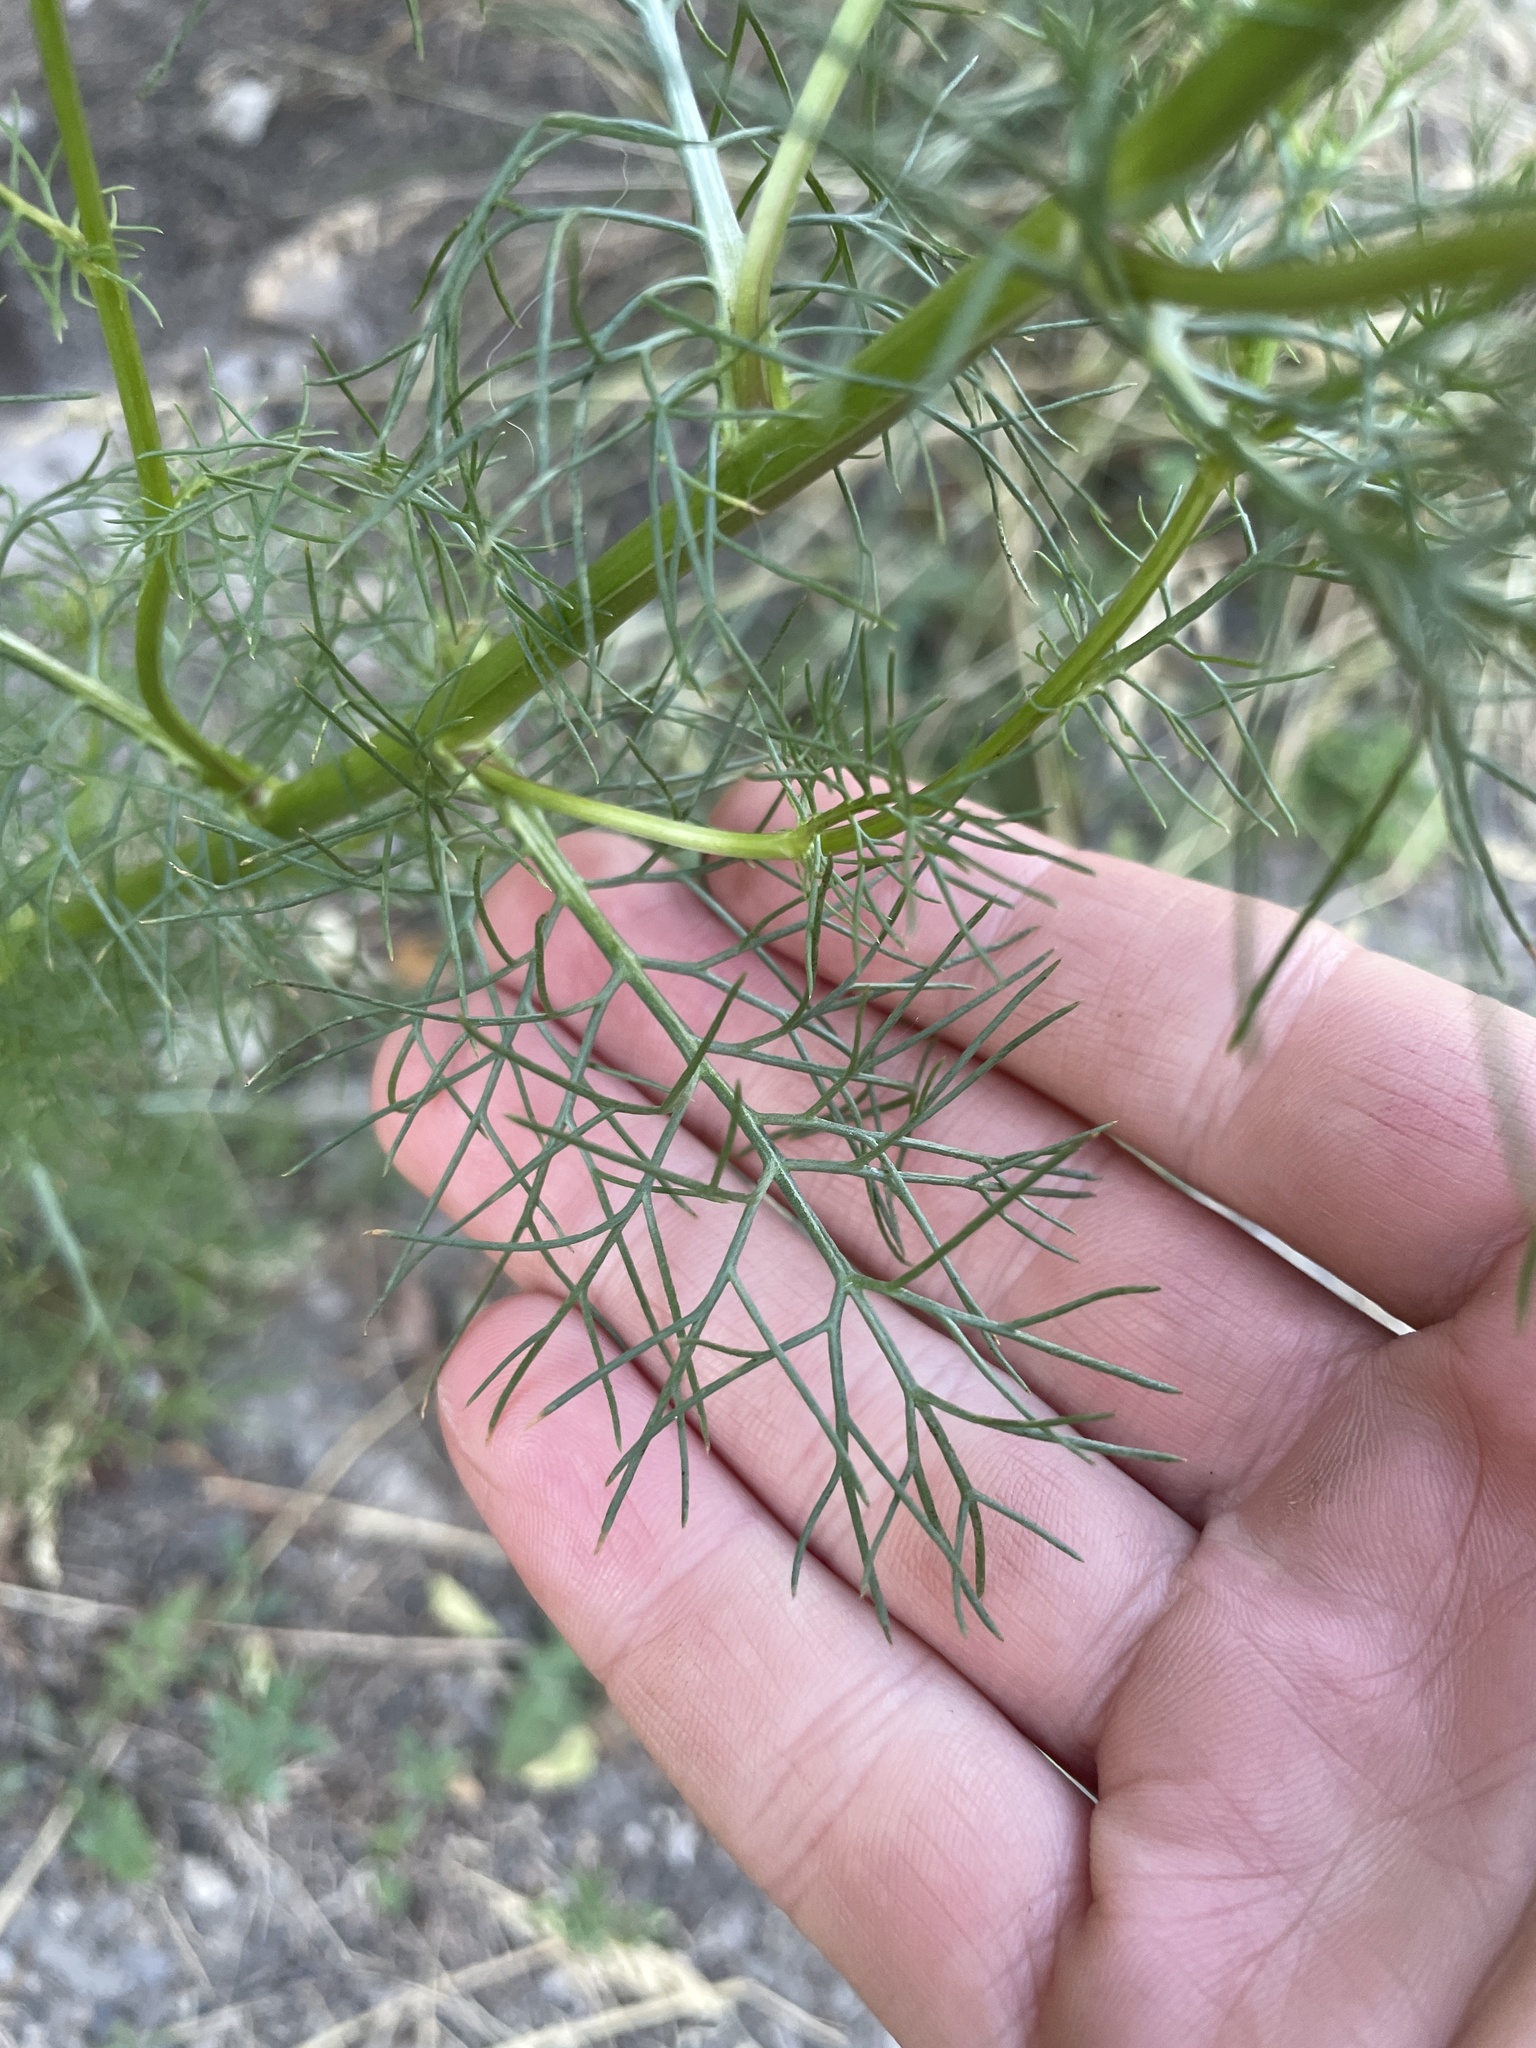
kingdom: Plantae
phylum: Tracheophyta
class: Magnoliopsida
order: Asterales
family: Asteraceae
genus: Tripleurospermum
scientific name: Tripleurospermum inodorum
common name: Scentless mayweed
